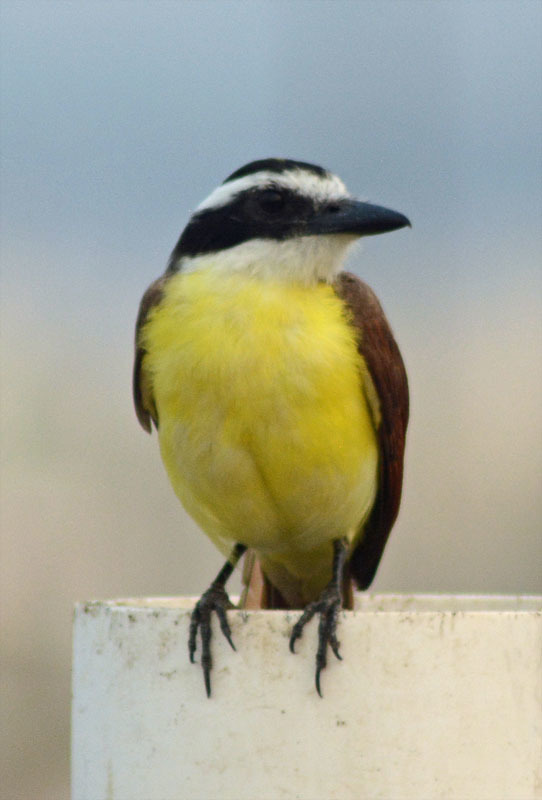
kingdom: Animalia
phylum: Chordata
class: Aves
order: Passeriformes
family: Tyrannidae
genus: Pitangus
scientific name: Pitangus sulphuratus
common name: Great kiskadee
